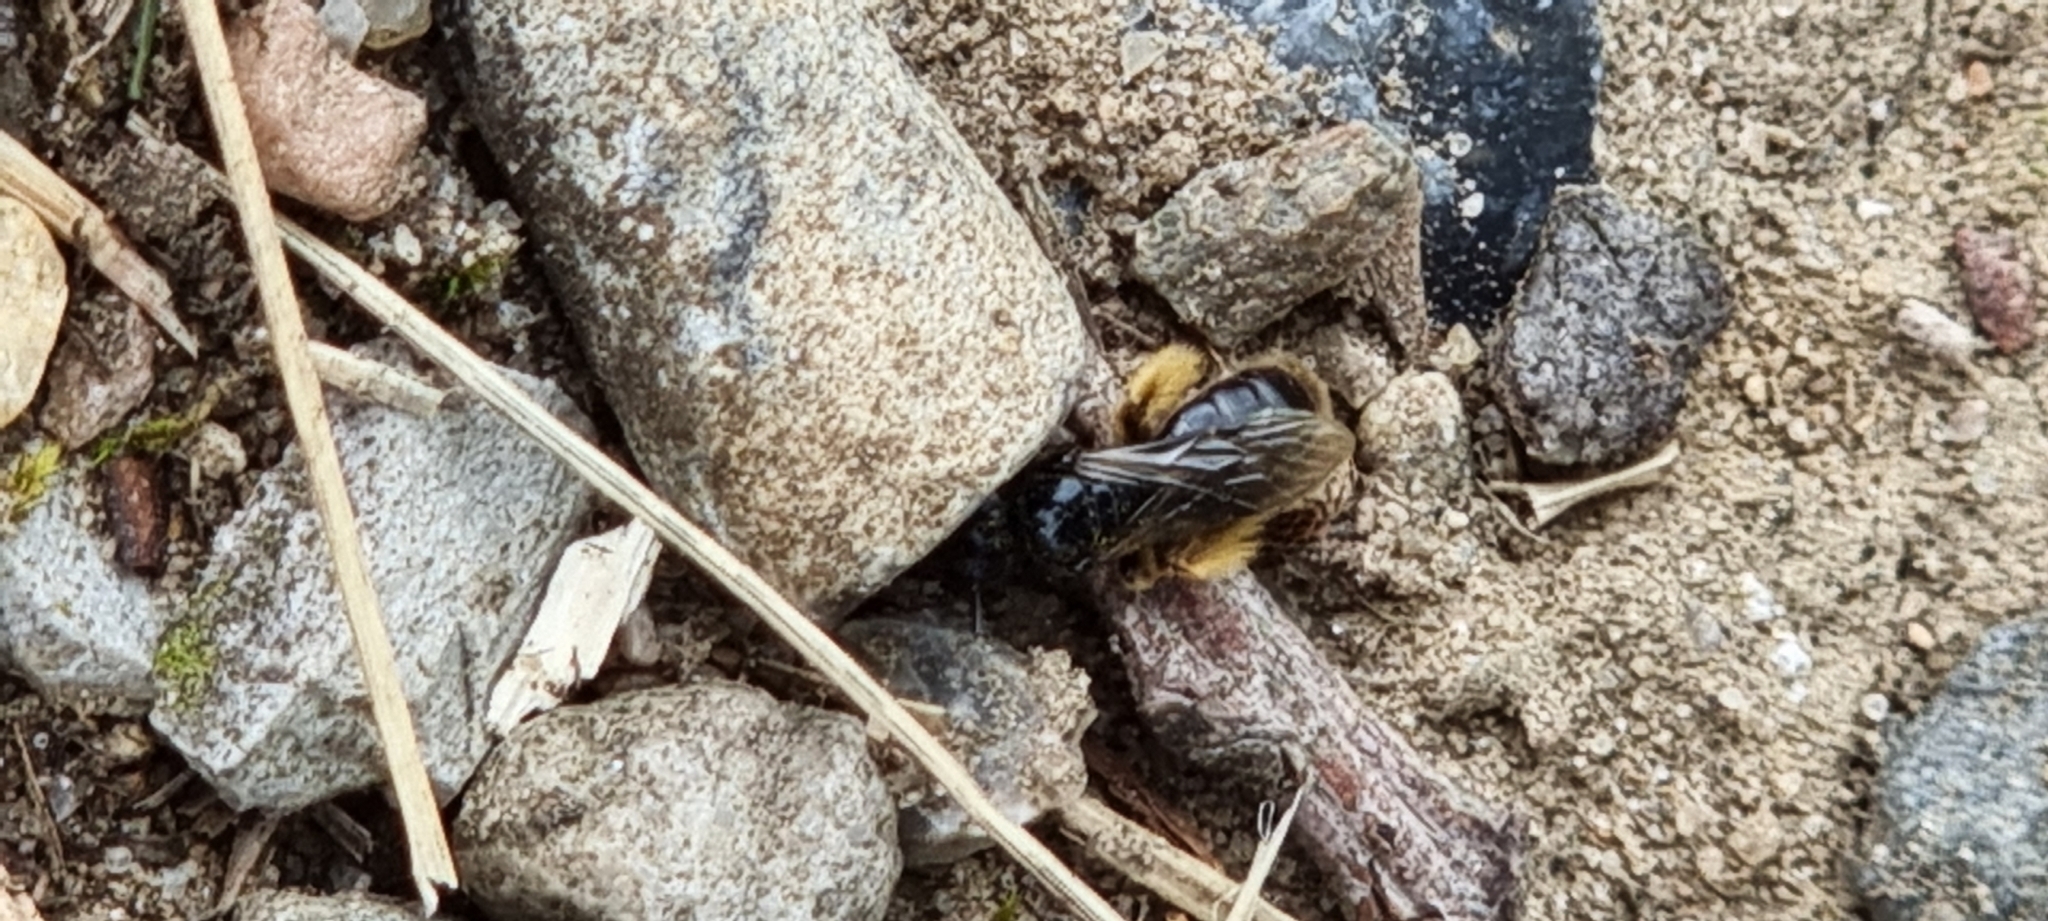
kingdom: Animalia
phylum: Arthropoda
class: Insecta
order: Hymenoptera
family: Andrenidae
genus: Panurgus
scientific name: Panurgus banksianus
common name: Large shaggy bee
